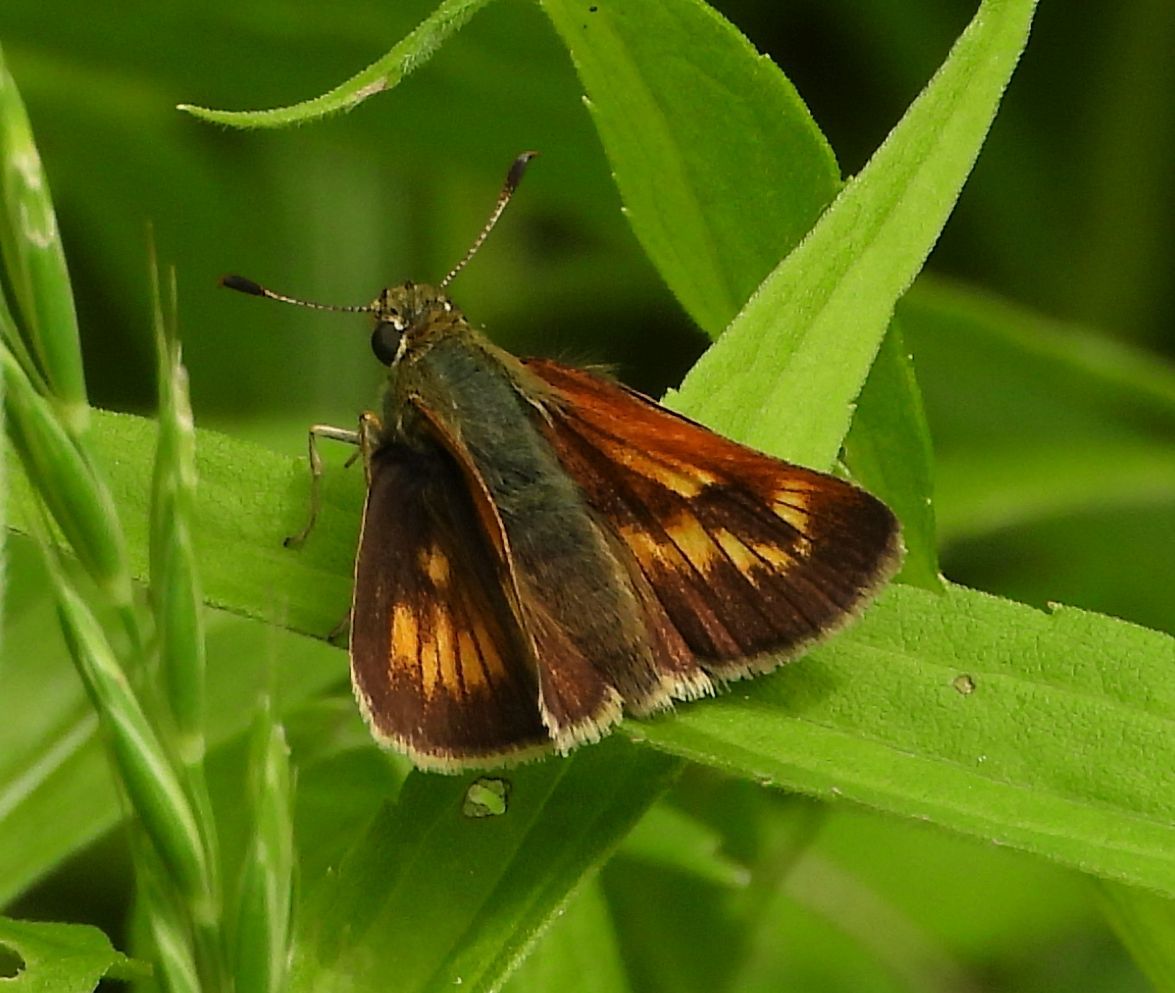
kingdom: Animalia
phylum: Arthropoda
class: Insecta
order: Lepidoptera
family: Hesperiidae
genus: Polites
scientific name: Polites mystic
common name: Long dash
